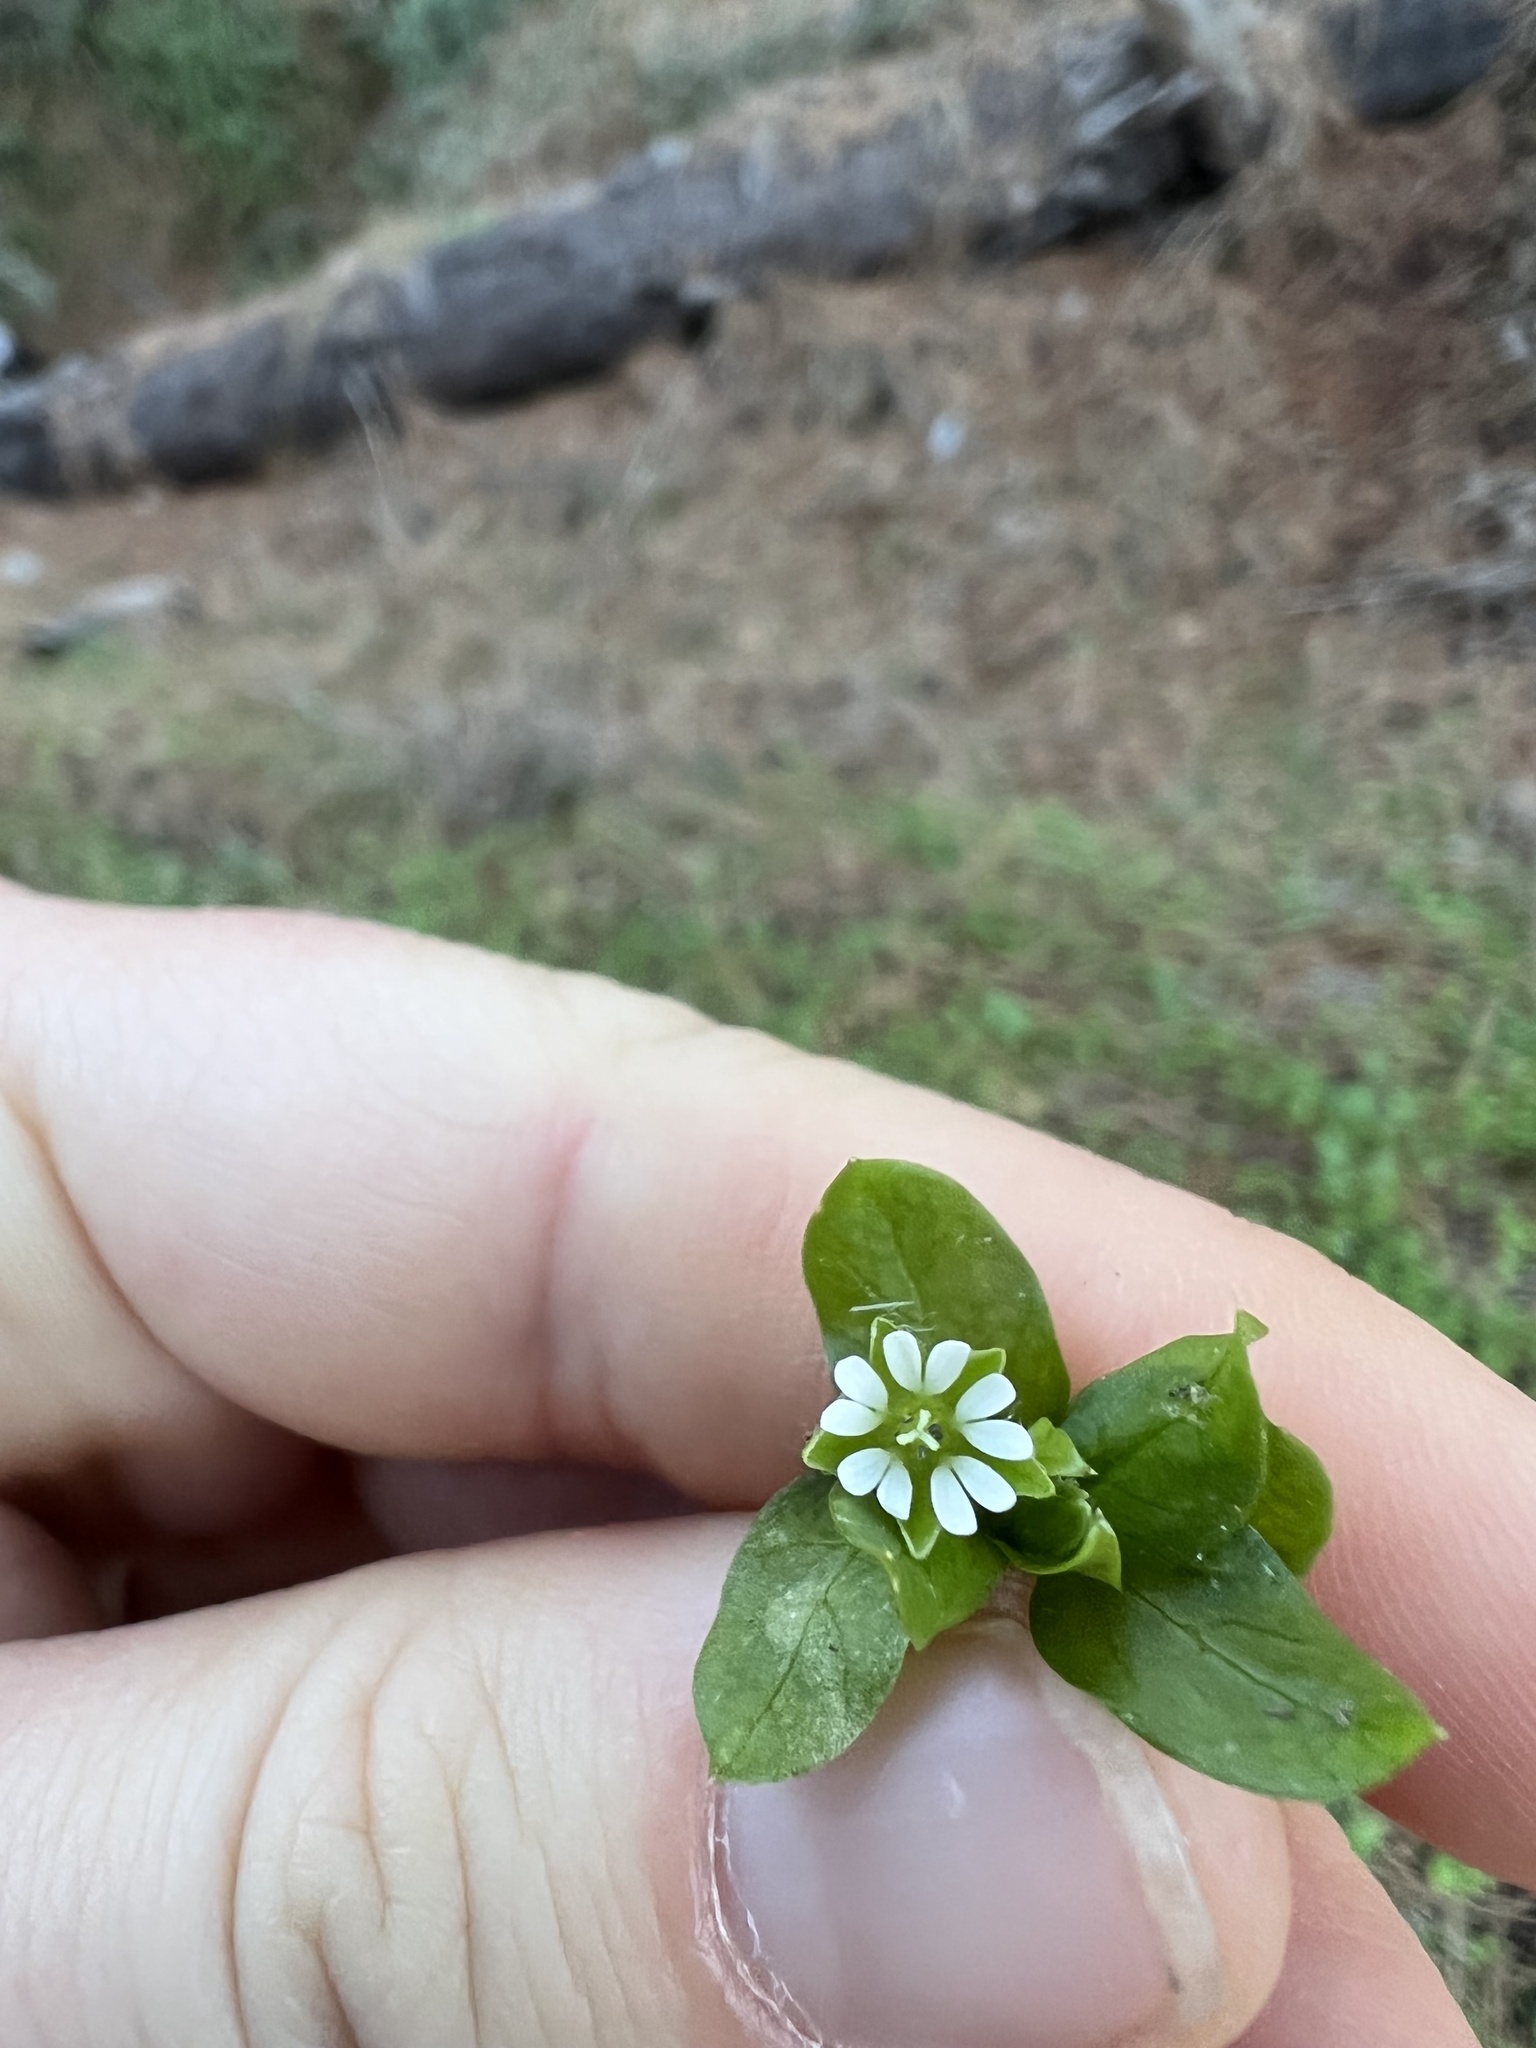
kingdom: Plantae
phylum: Tracheophyta
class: Magnoliopsida
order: Caryophyllales
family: Caryophyllaceae
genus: Stellaria
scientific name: Stellaria media
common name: Common chickweed
